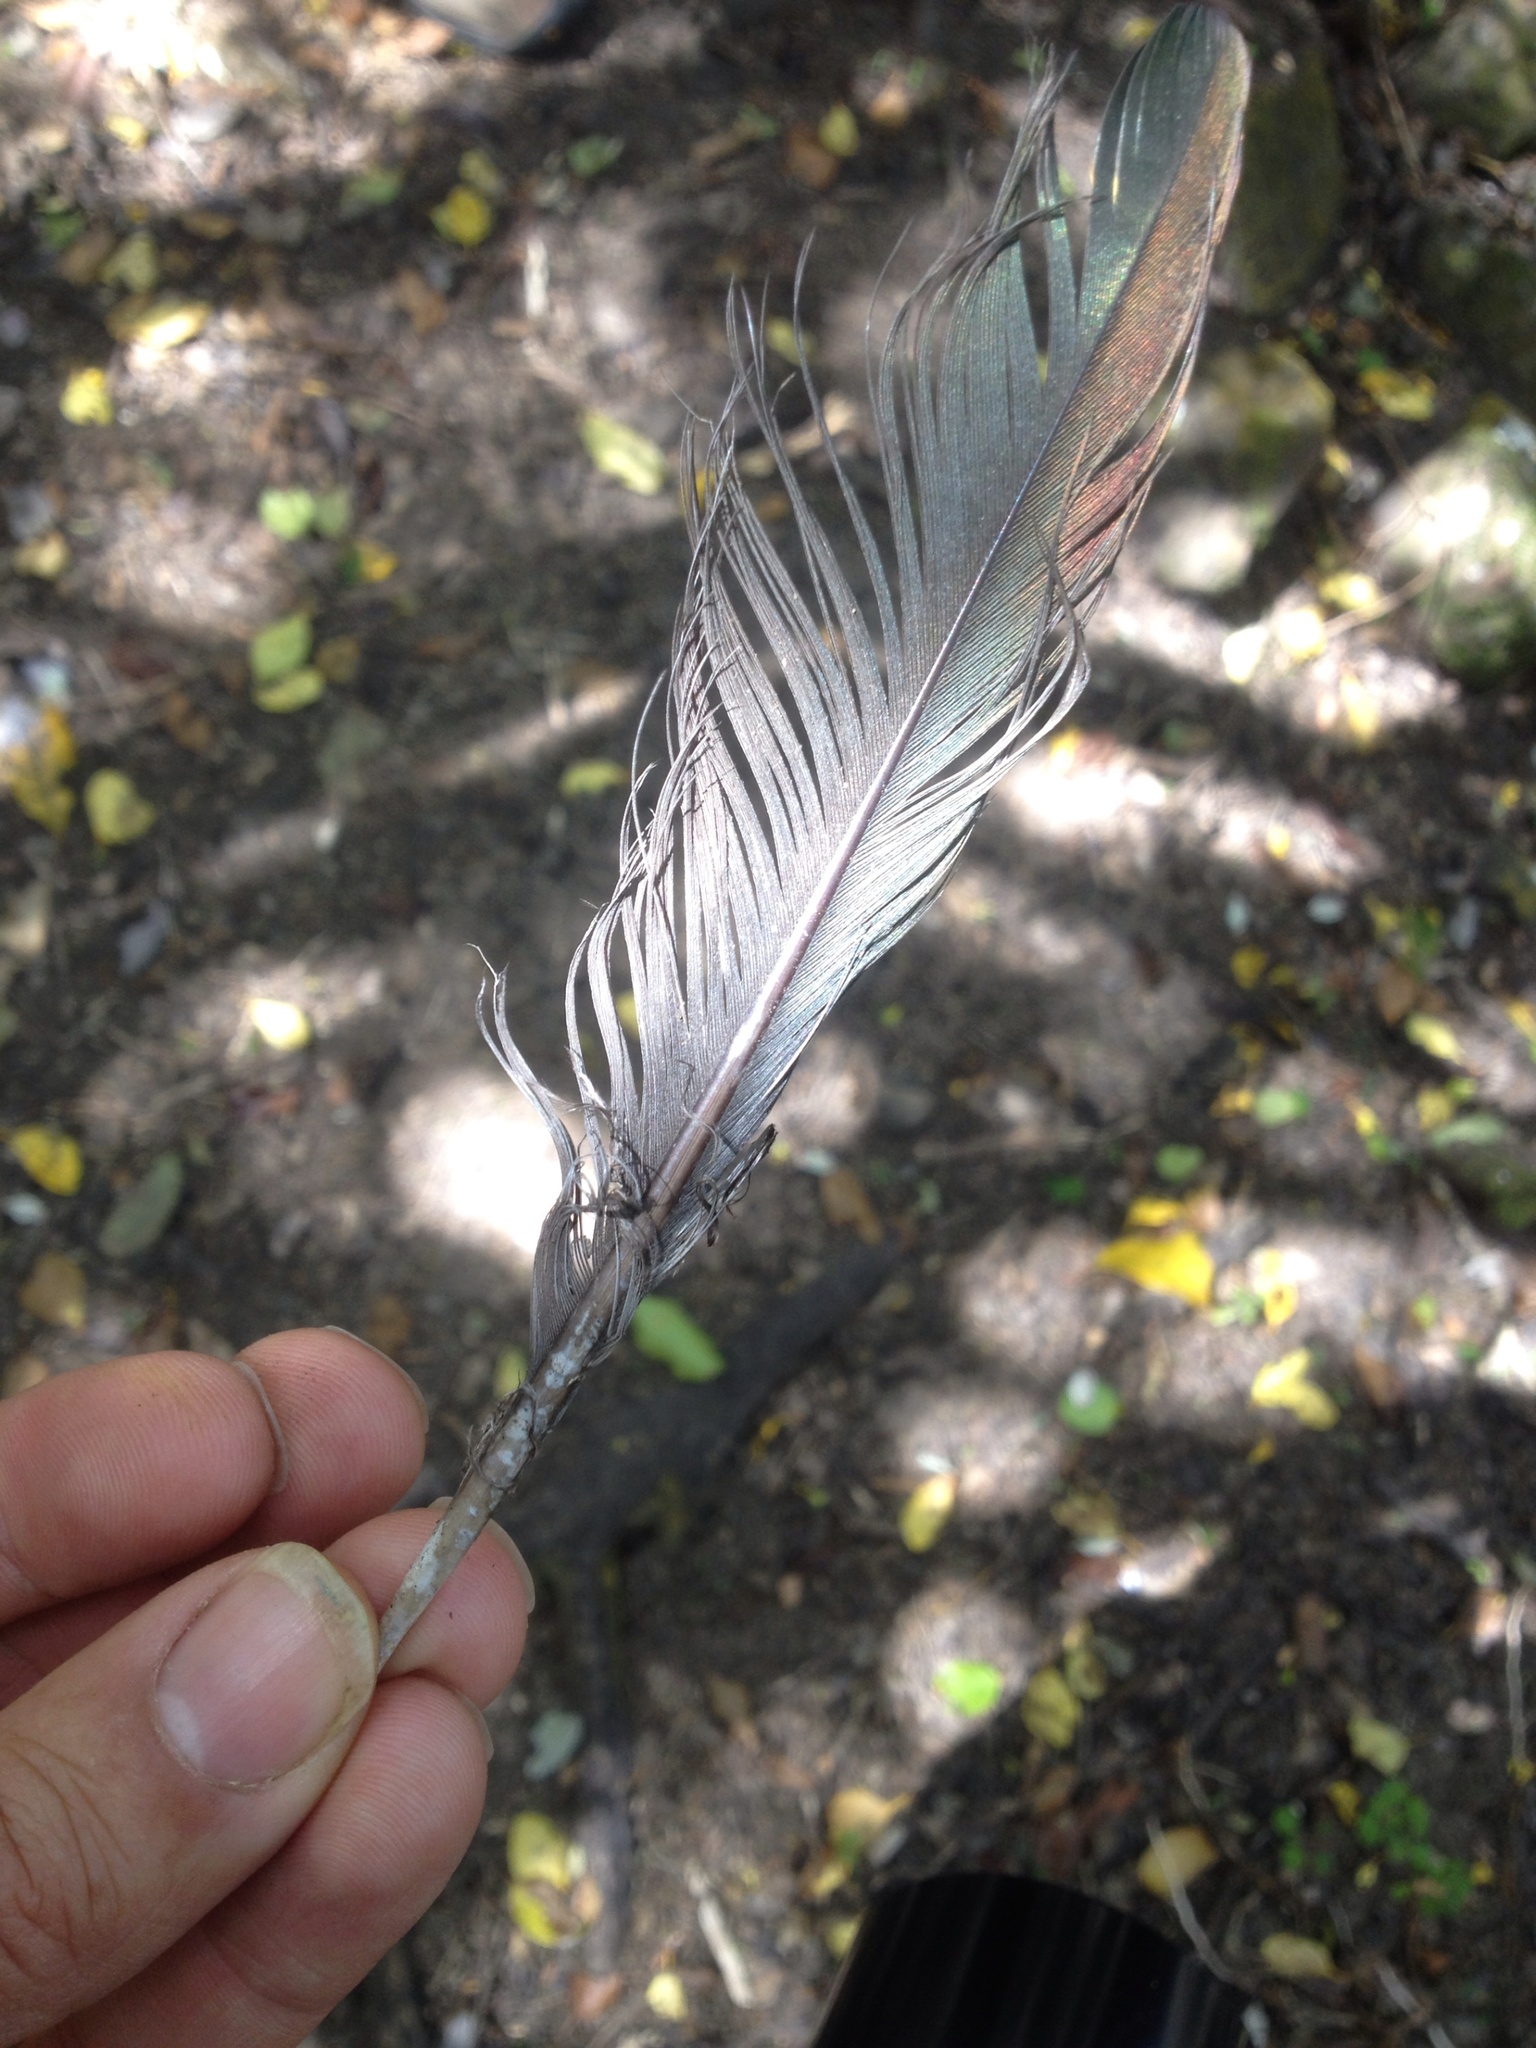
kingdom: Animalia
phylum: Chordata
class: Aves
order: Columbiformes
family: Columbidae
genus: Hemiphaga
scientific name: Hemiphaga novaeseelandiae
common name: New zealand pigeon
